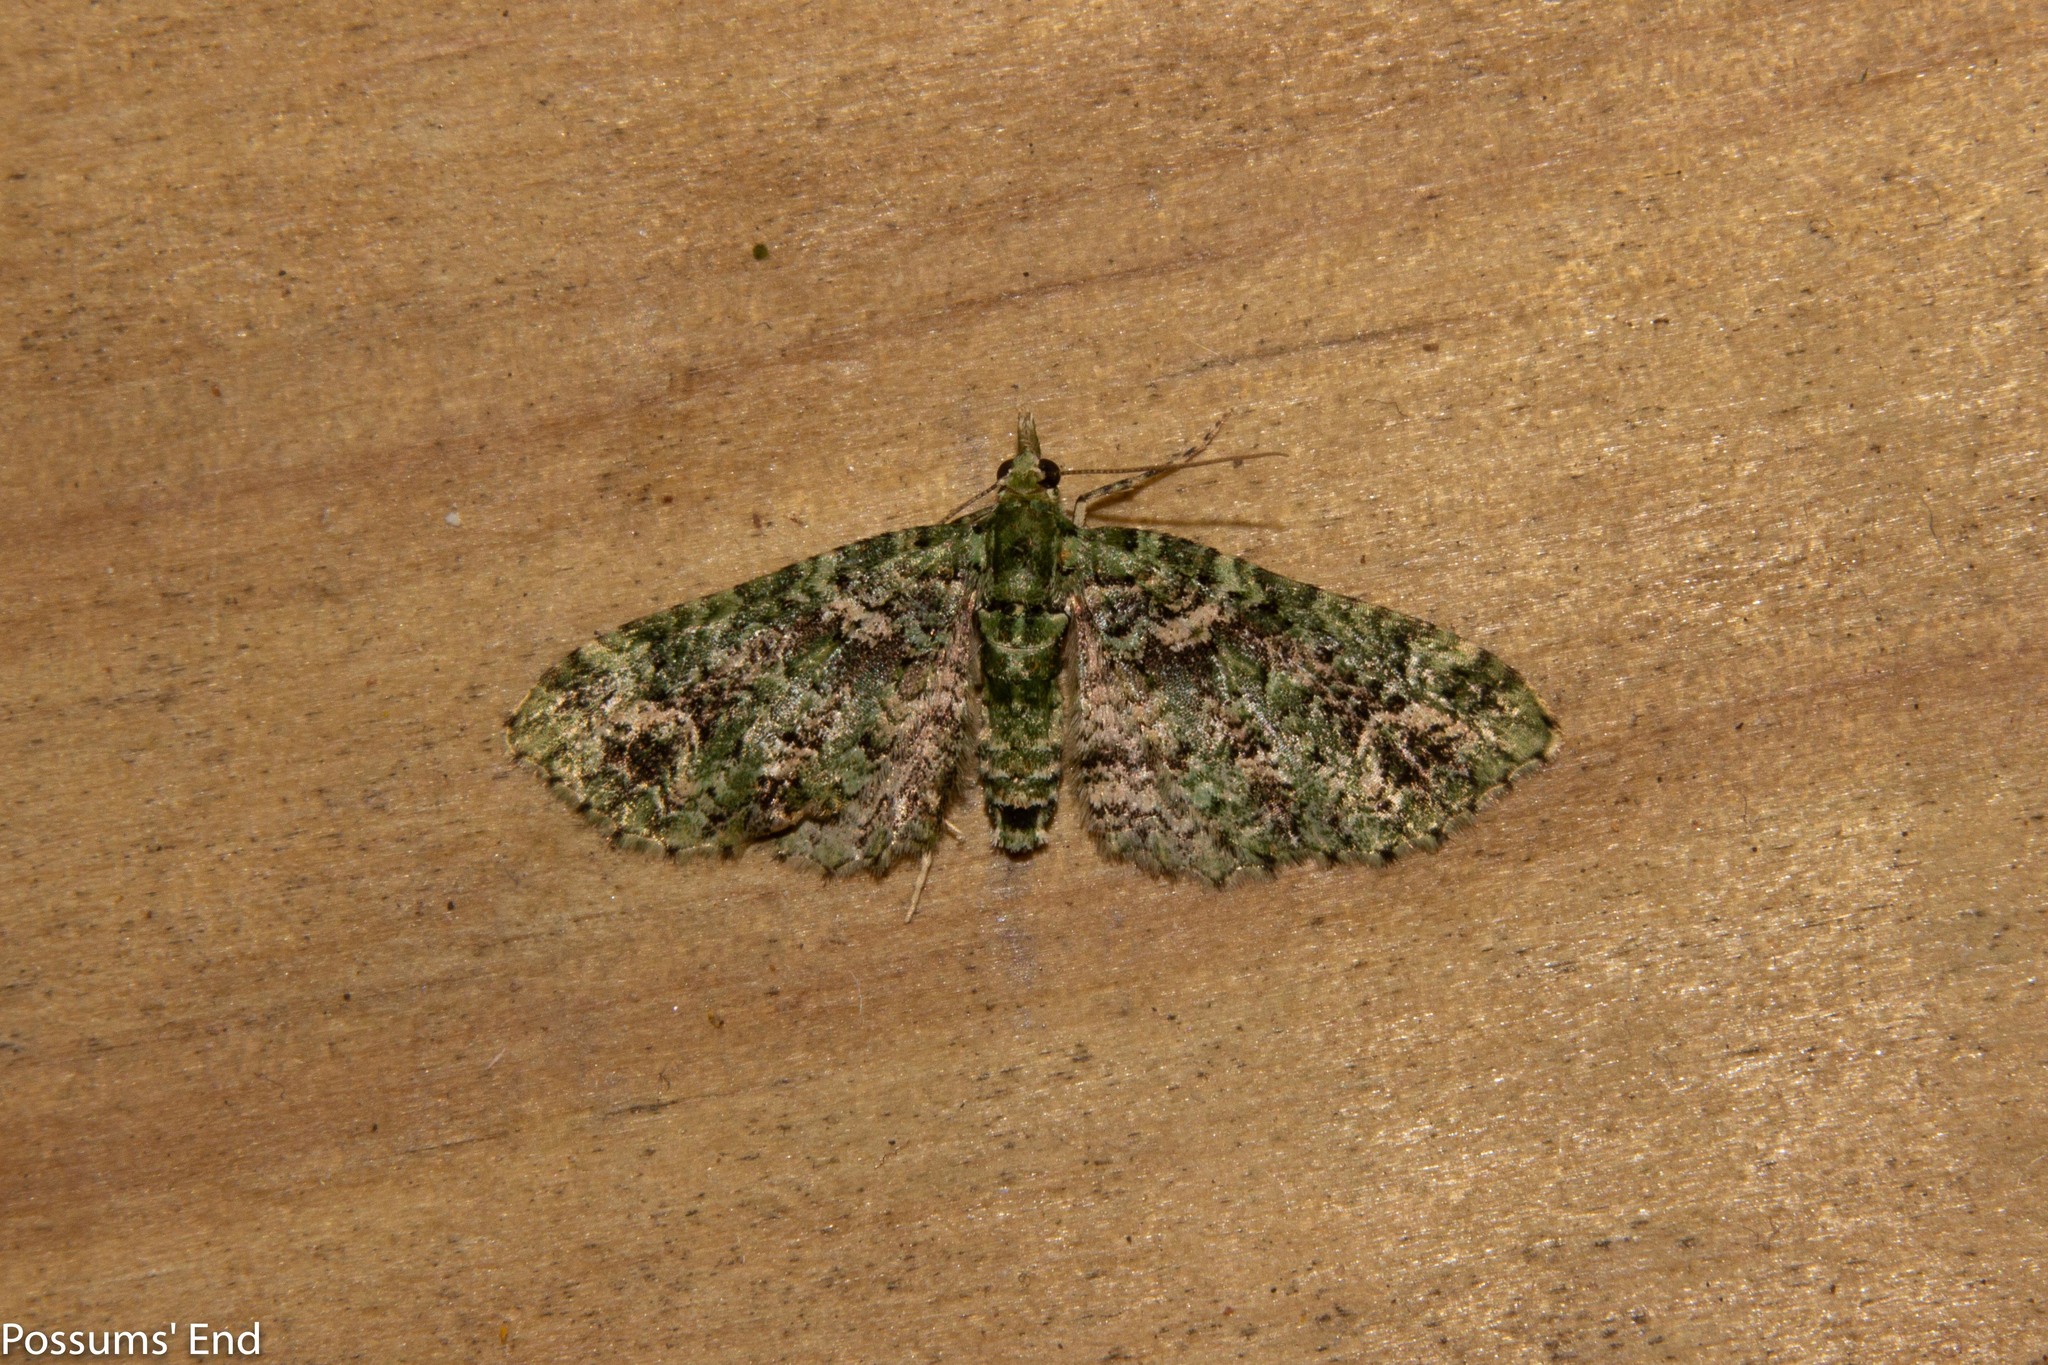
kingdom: Animalia
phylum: Arthropoda
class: Insecta
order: Lepidoptera
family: Geometridae
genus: Pasiphila
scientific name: Pasiphila muscosata
